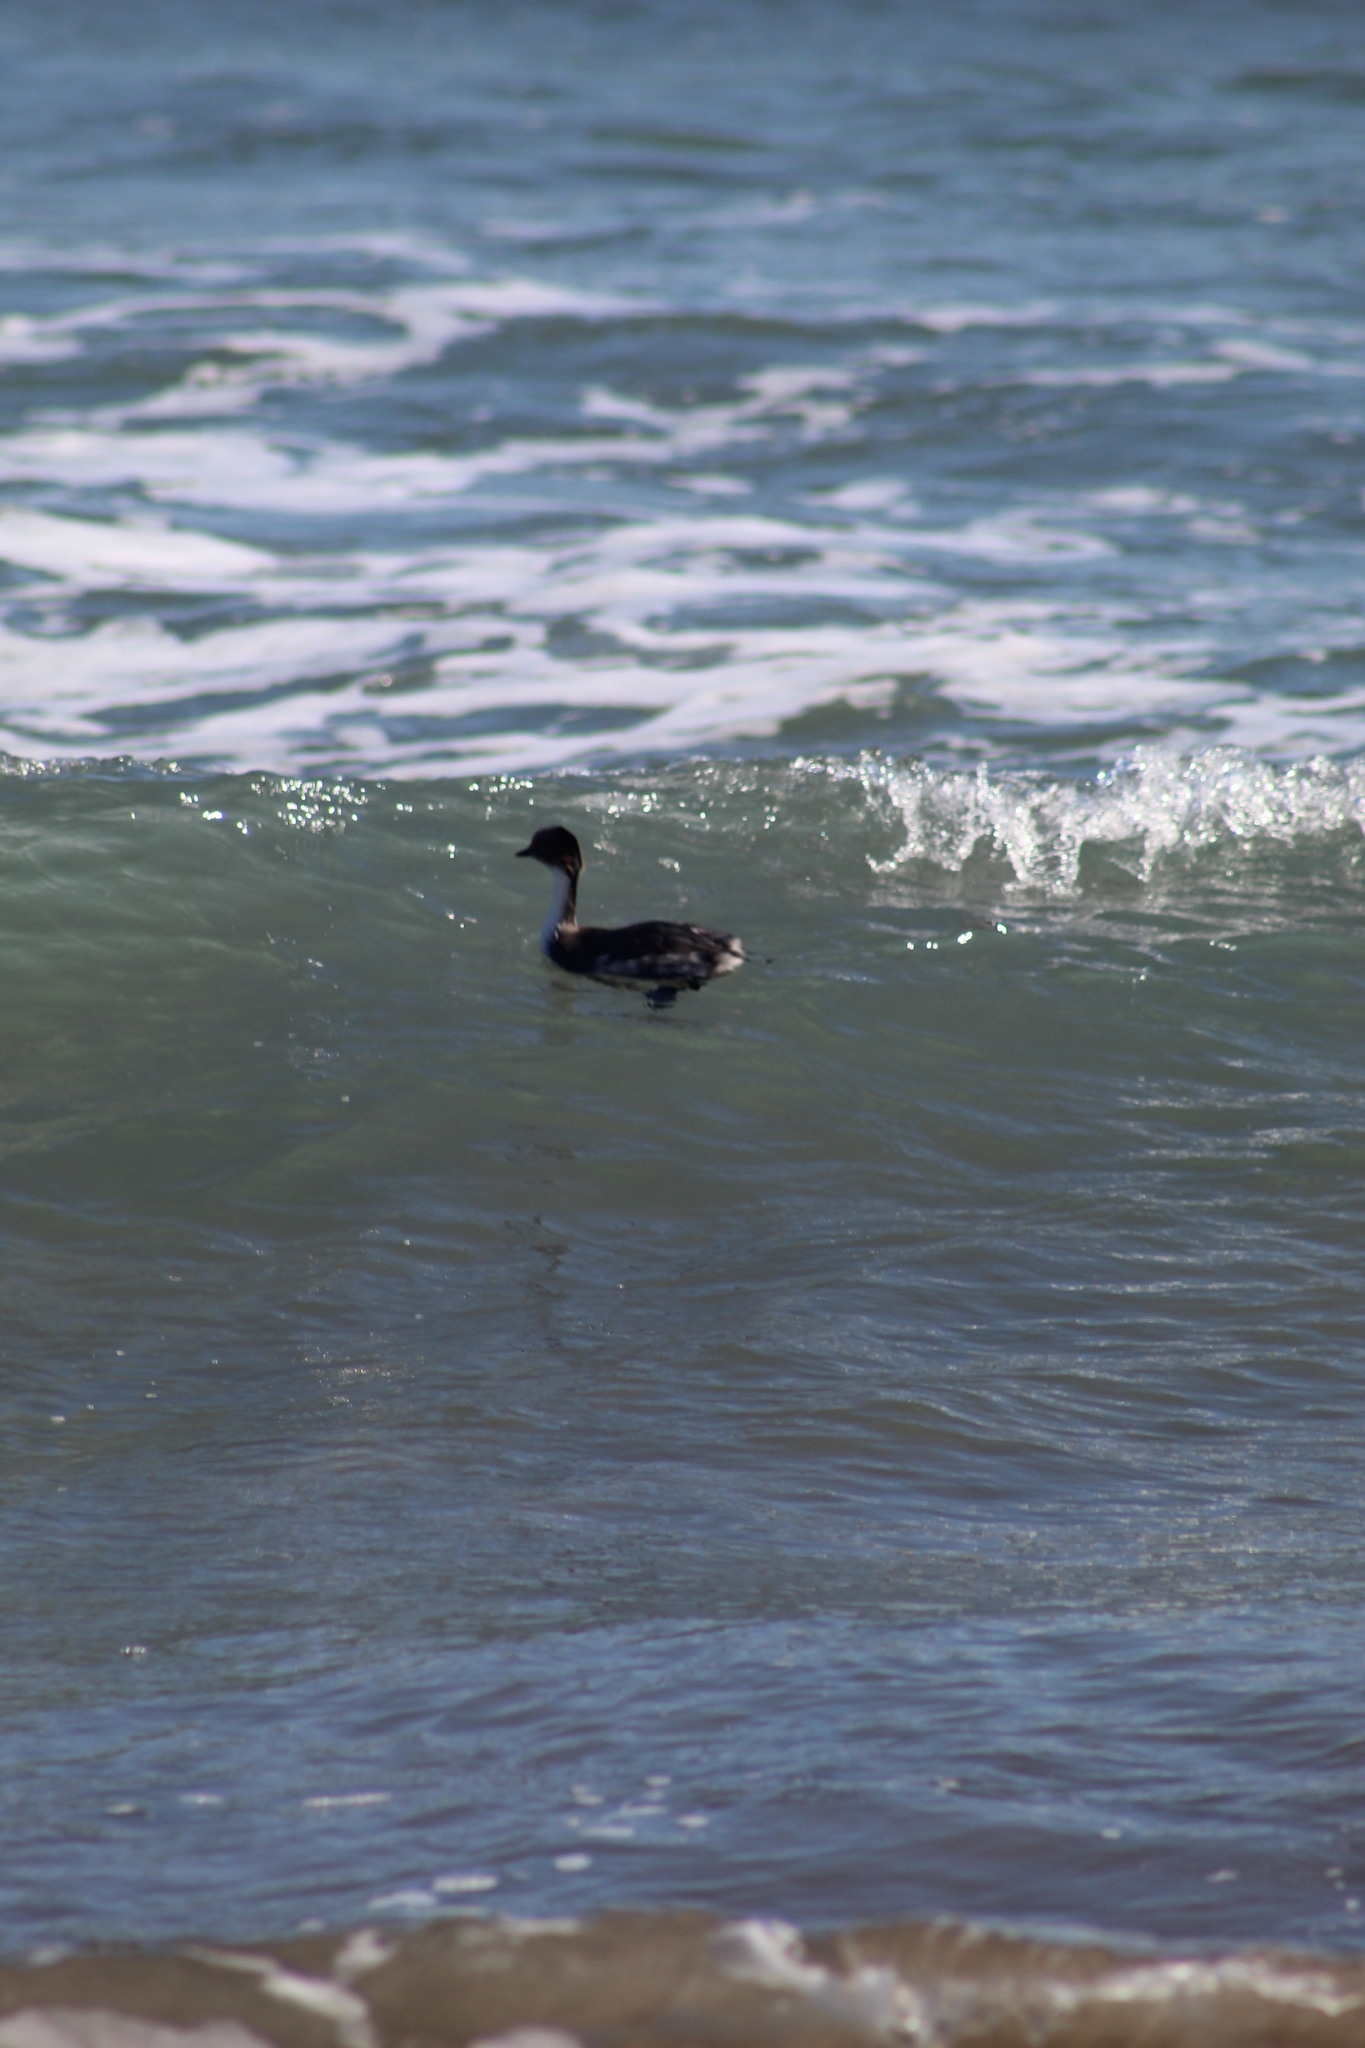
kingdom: Animalia
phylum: Chordata
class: Aves
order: Podicipediformes
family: Podicipedidae
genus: Podiceps
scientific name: Podiceps occipitalis
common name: Silvery grebe
